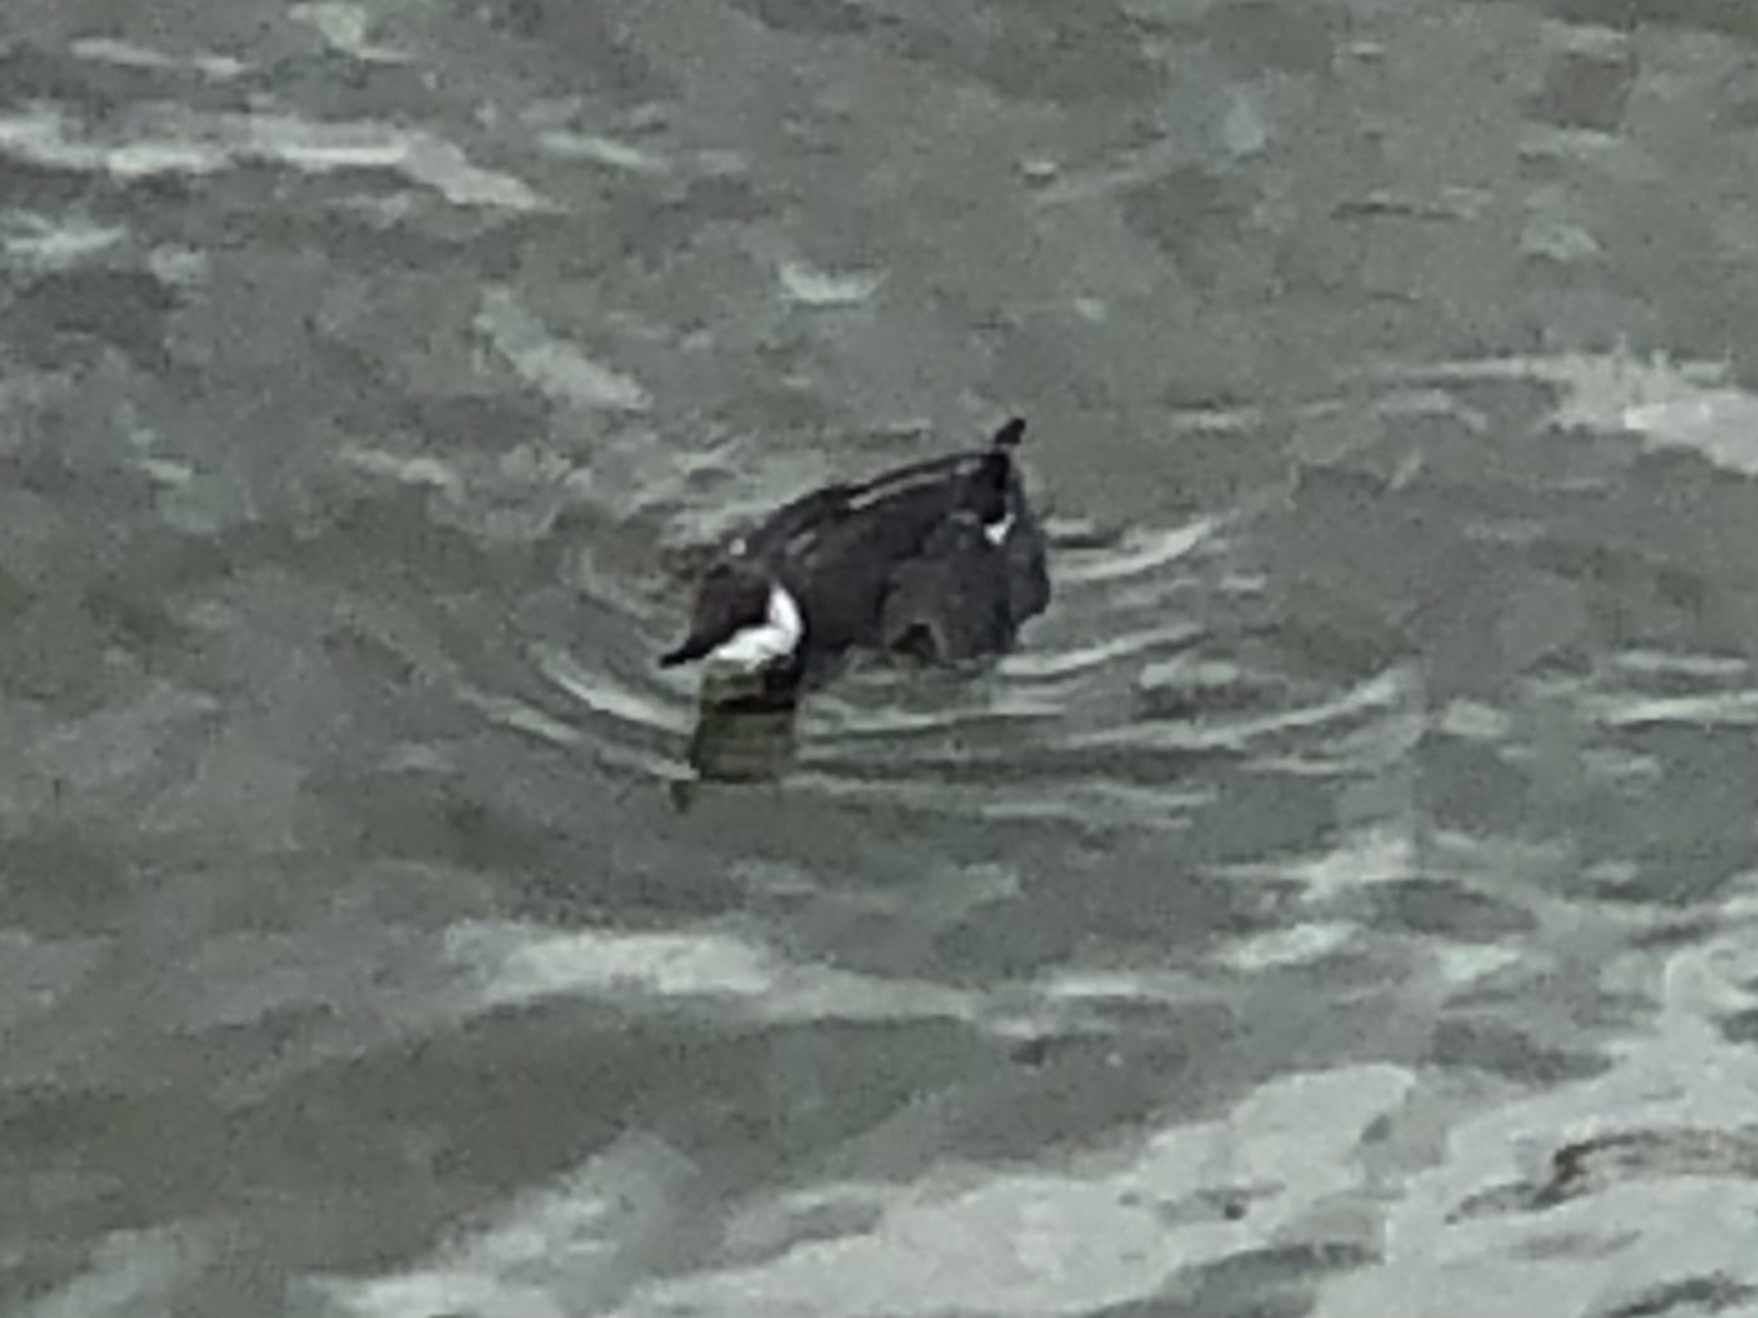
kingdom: Animalia
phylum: Chordata
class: Aves
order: Charadriiformes
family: Alcidae
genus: Uria
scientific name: Uria aalge
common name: Common murre
